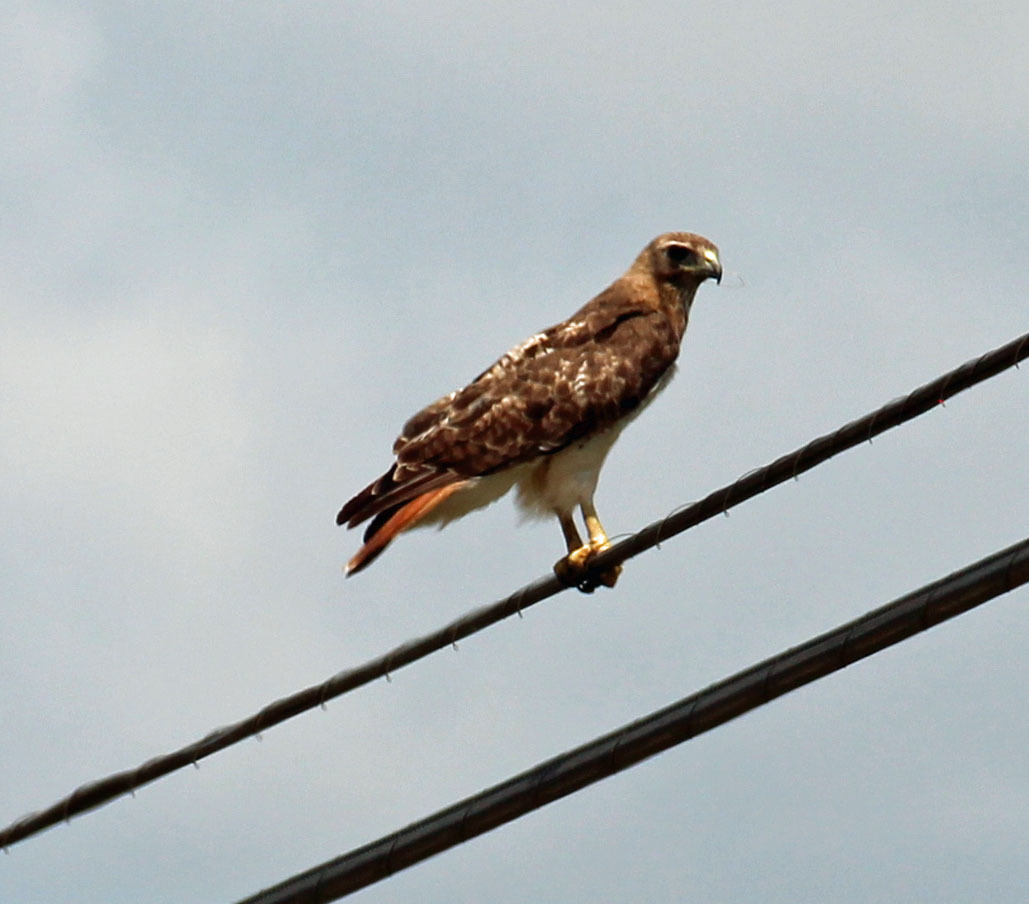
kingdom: Animalia
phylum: Chordata
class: Aves
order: Accipitriformes
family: Accipitridae
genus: Buteo
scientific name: Buteo jamaicensis
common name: Red-tailed hawk
